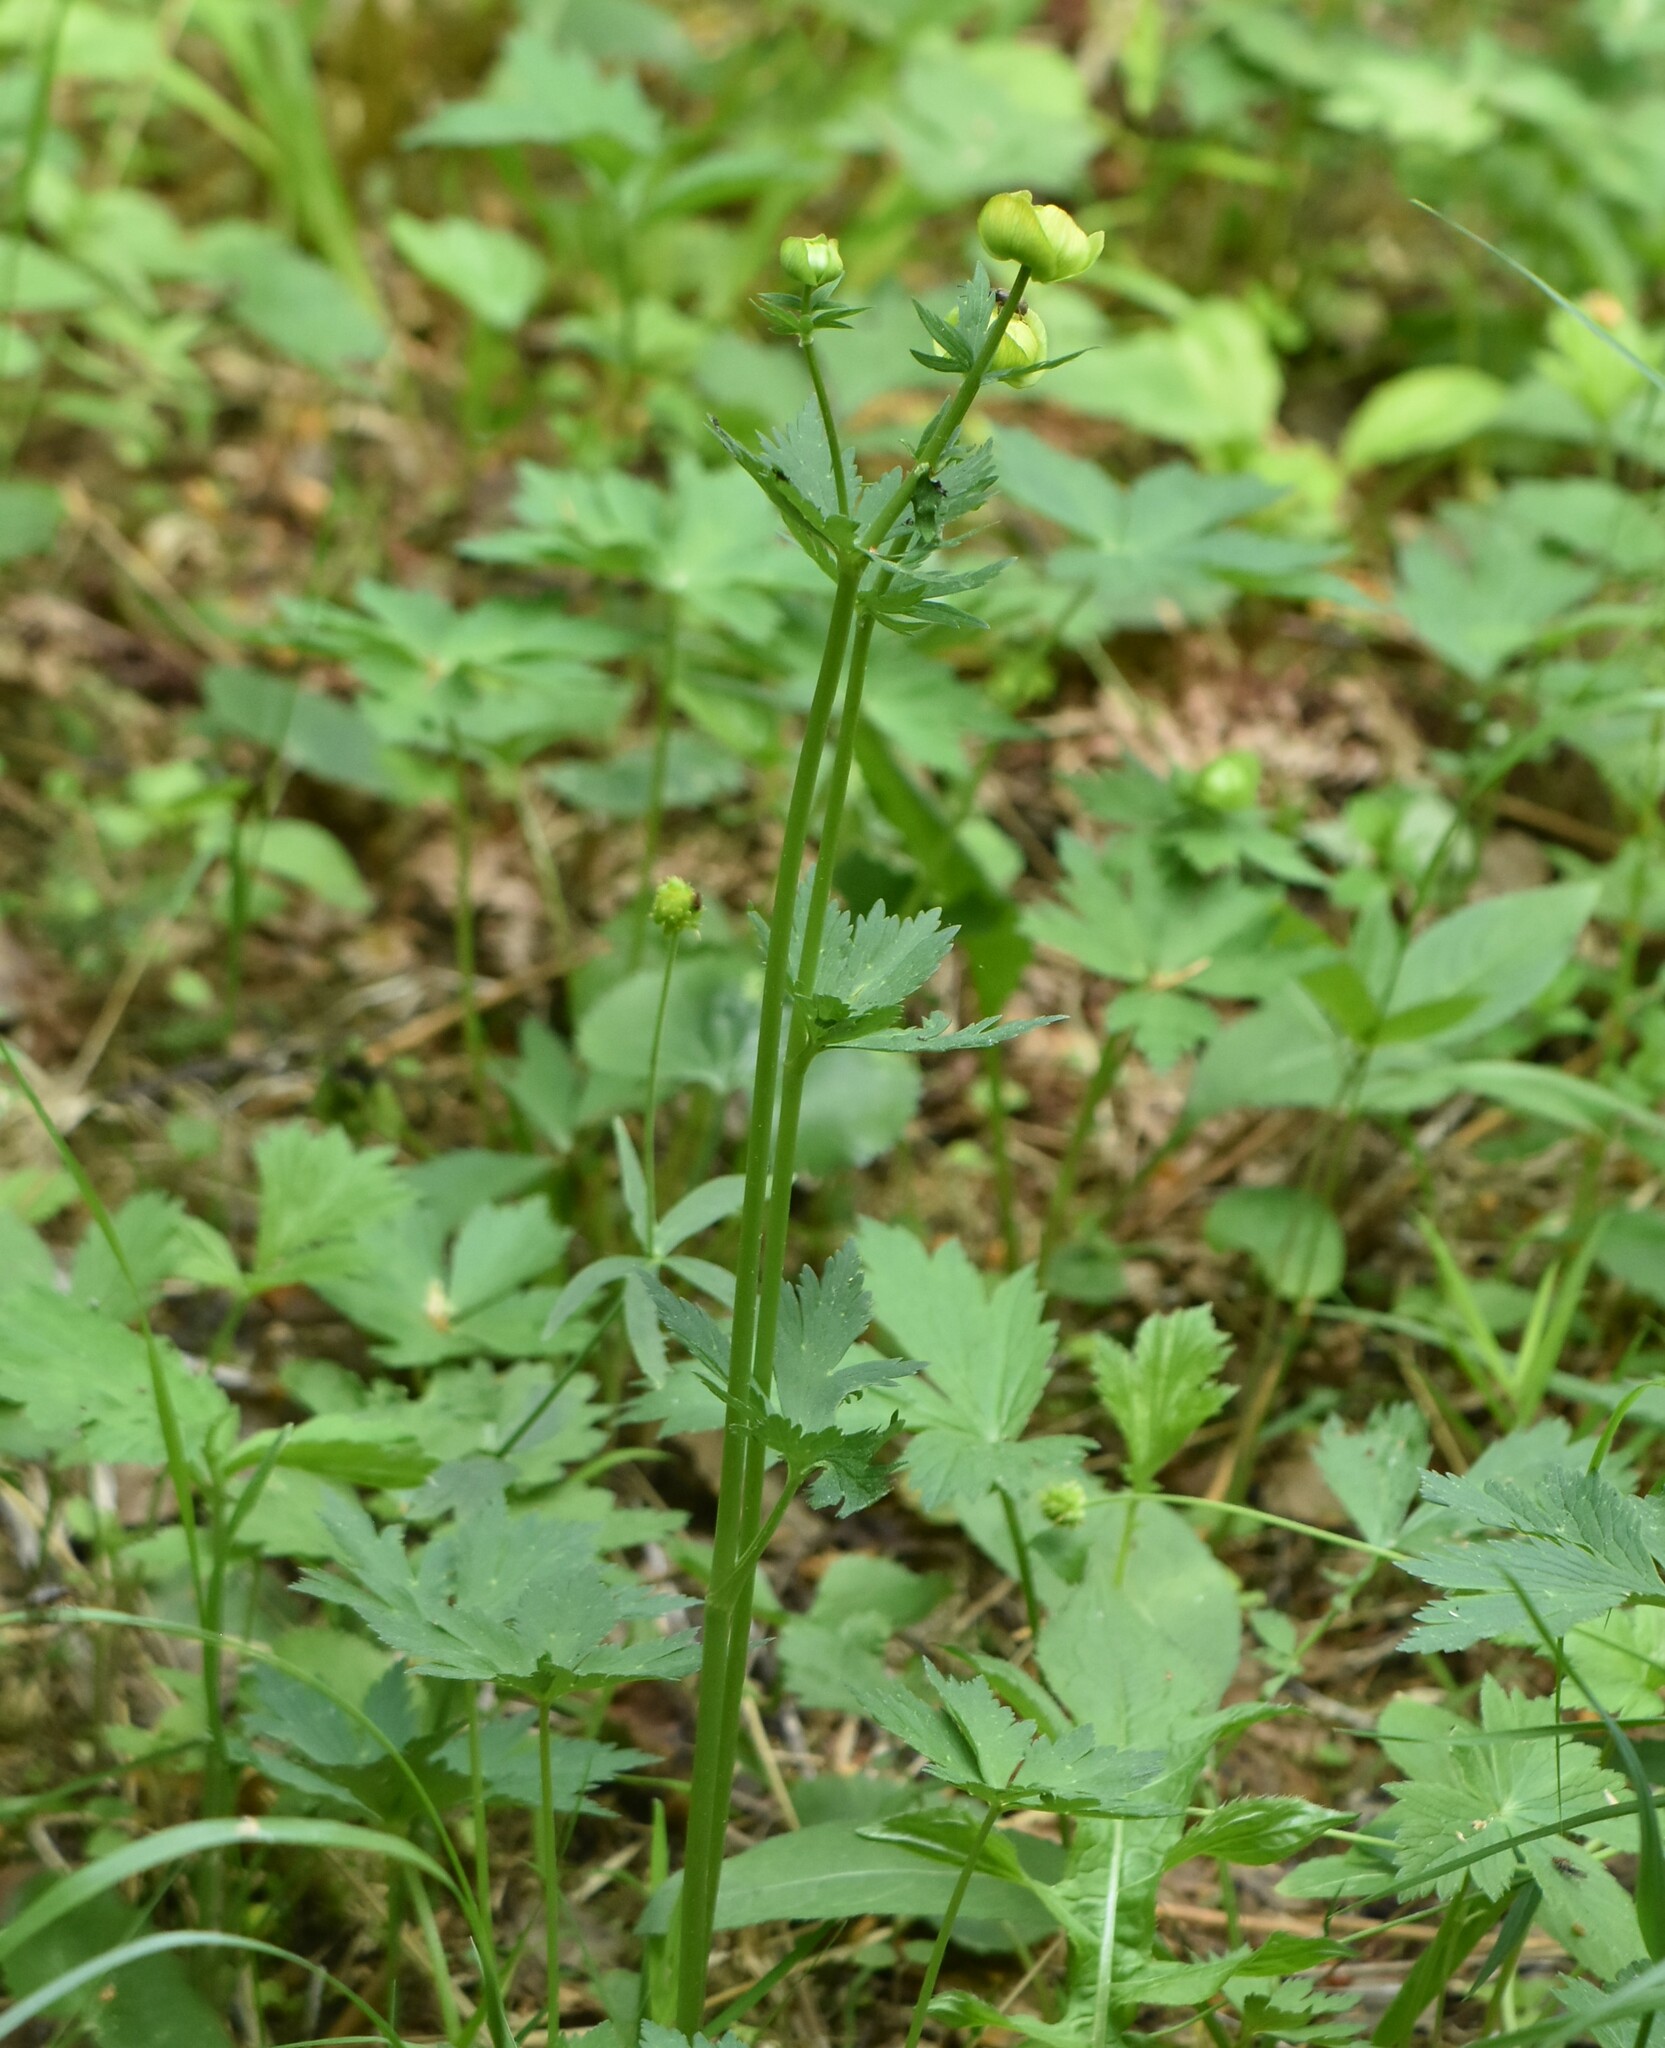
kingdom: Plantae
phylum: Tracheophyta
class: Magnoliopsida
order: Ranunculales
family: Ranunculaceae
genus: Trollius
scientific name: Trollius europaeus
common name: European globeflower
